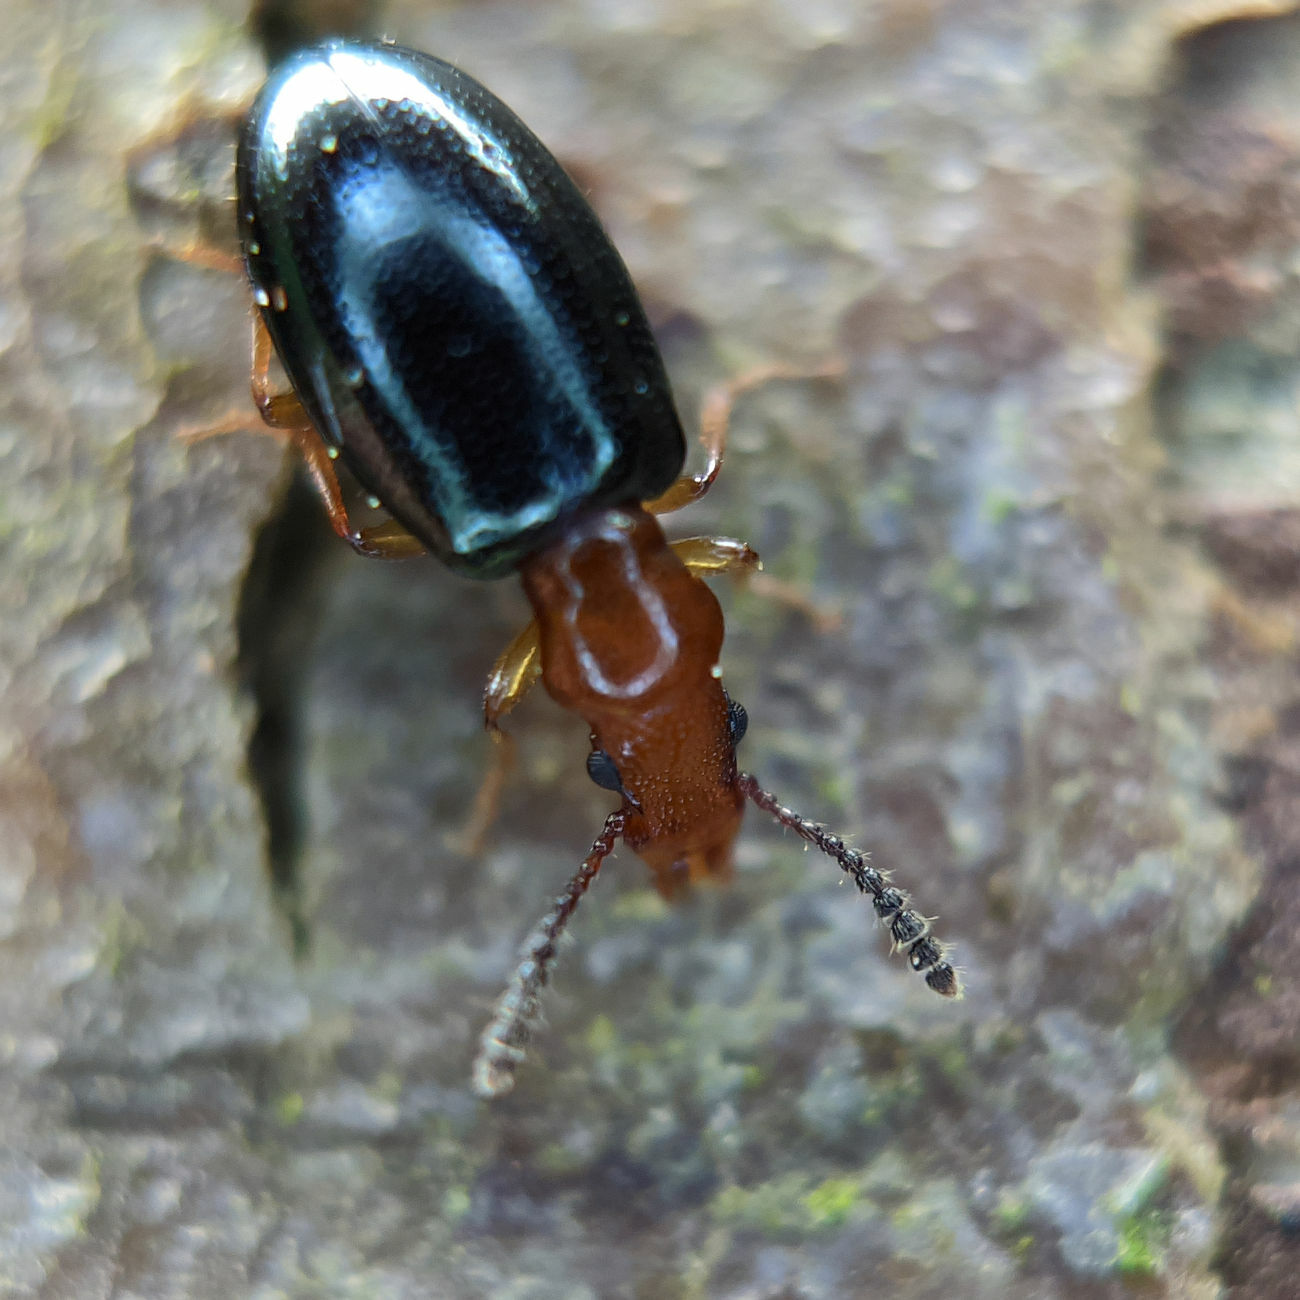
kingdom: Animalia
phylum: Arthropoda
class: Insecta
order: Coleoptera
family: Salpingidae
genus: Vincenzellus
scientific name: Vincenzellus ruficollis
